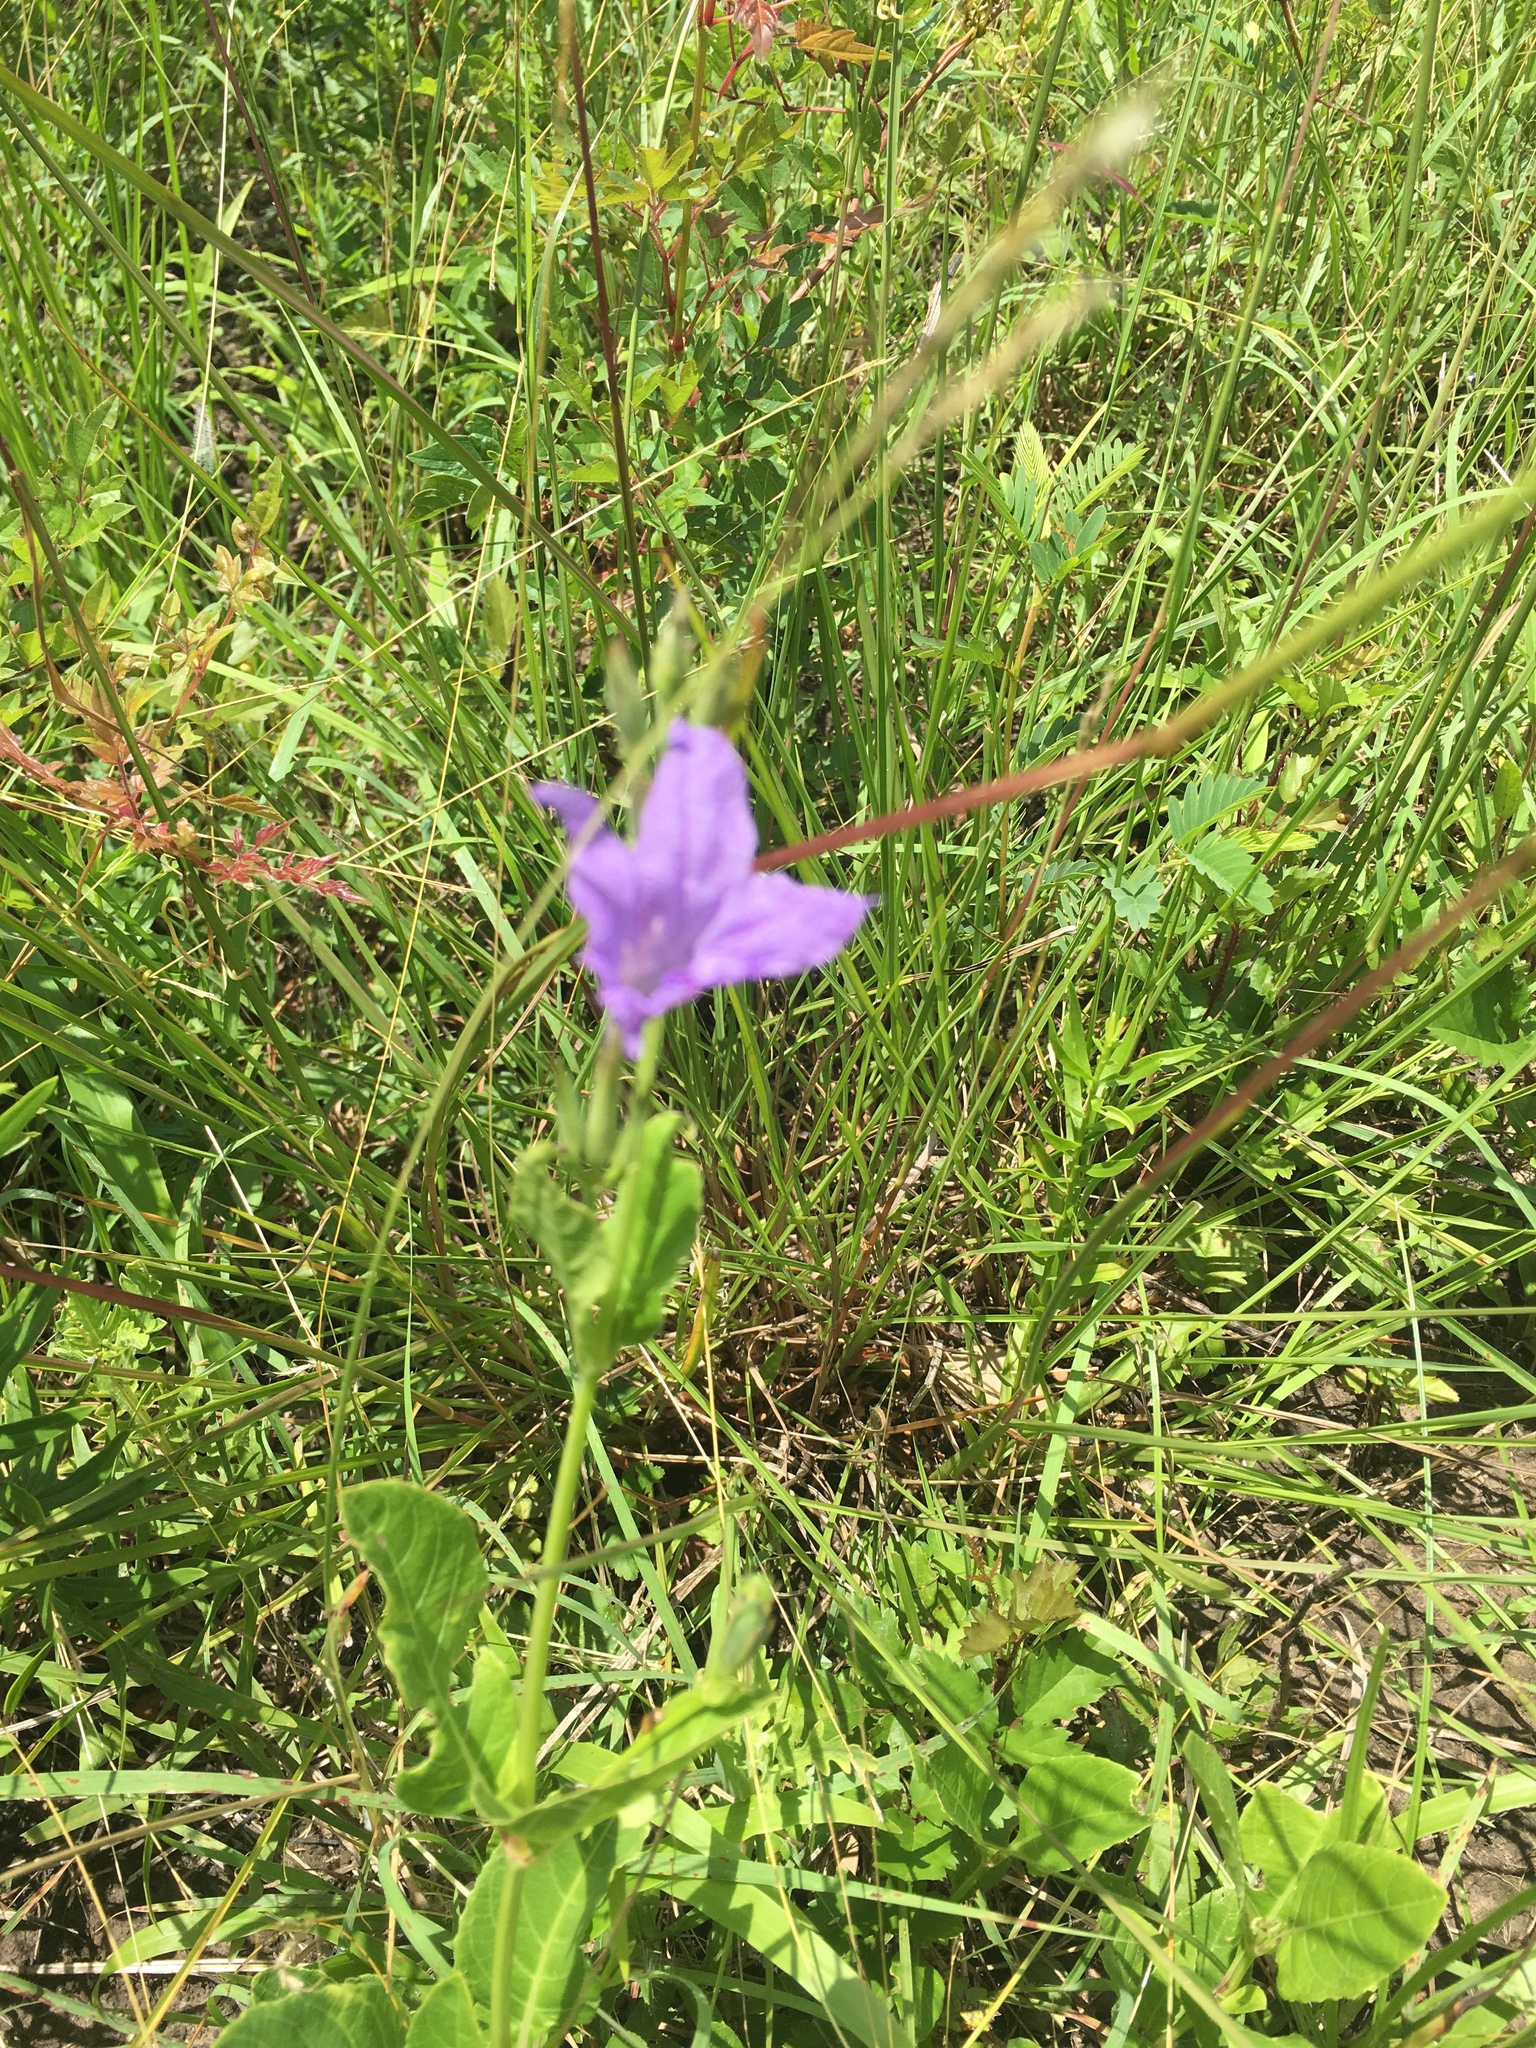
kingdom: Plantae
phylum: Tracheophyta
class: Magnoliopsida
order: Lamiales
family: Acanthaceae
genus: Ruellia
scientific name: Ruellia ciliatiflora
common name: Hairyflower wild petunia
